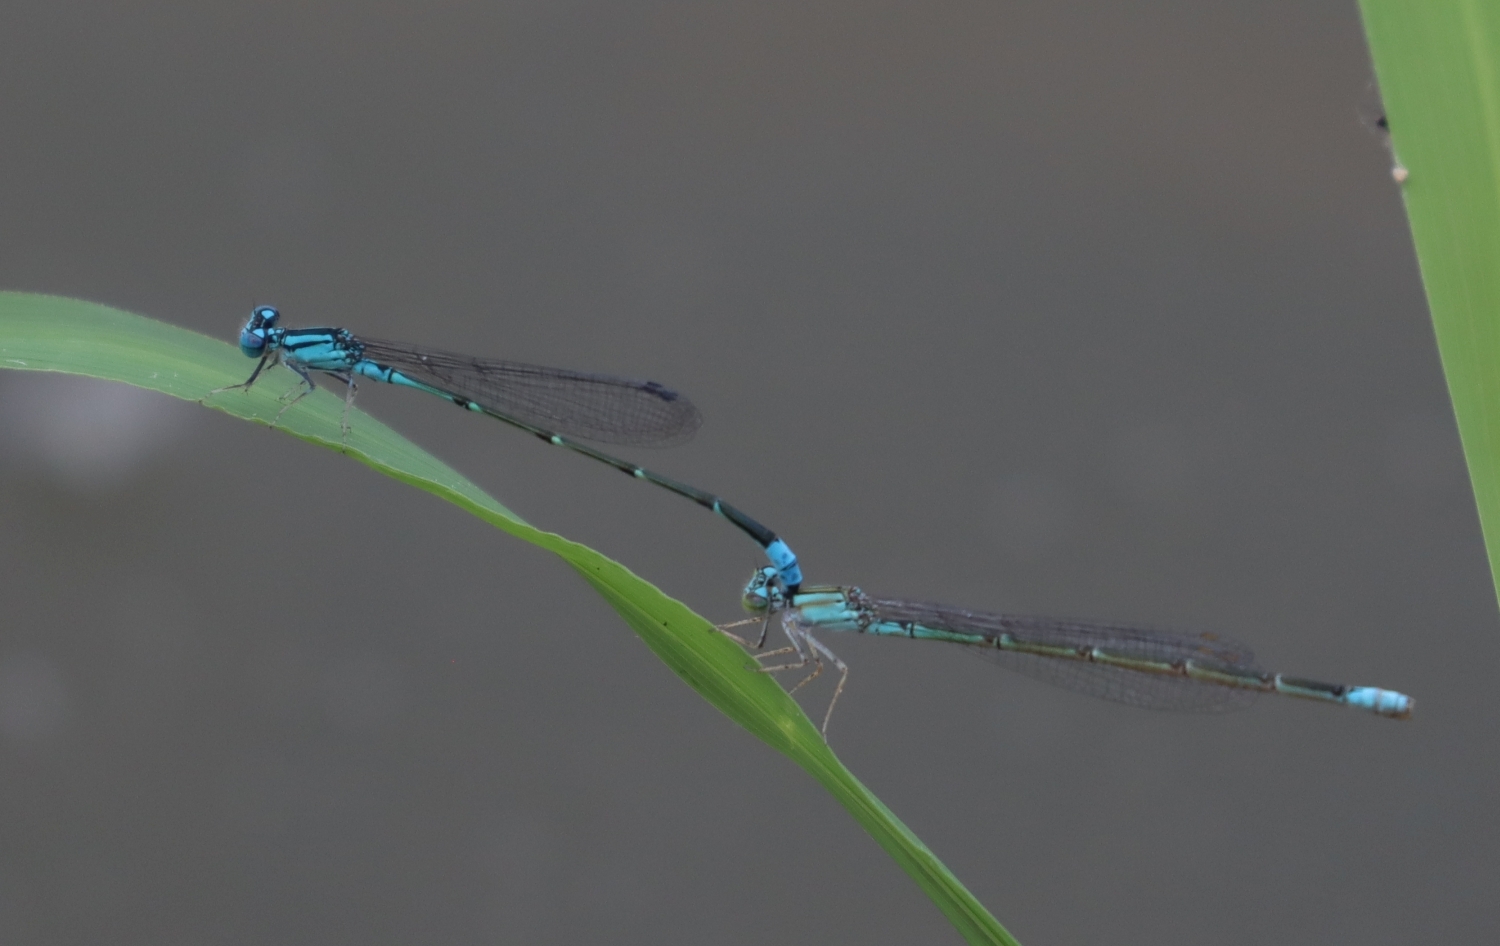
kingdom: Animalia
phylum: Arthropoda
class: Insecta
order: Odonata
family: Coenagrionidae
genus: Enallagma
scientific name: Enallagma traviatum
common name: Slender bluet
